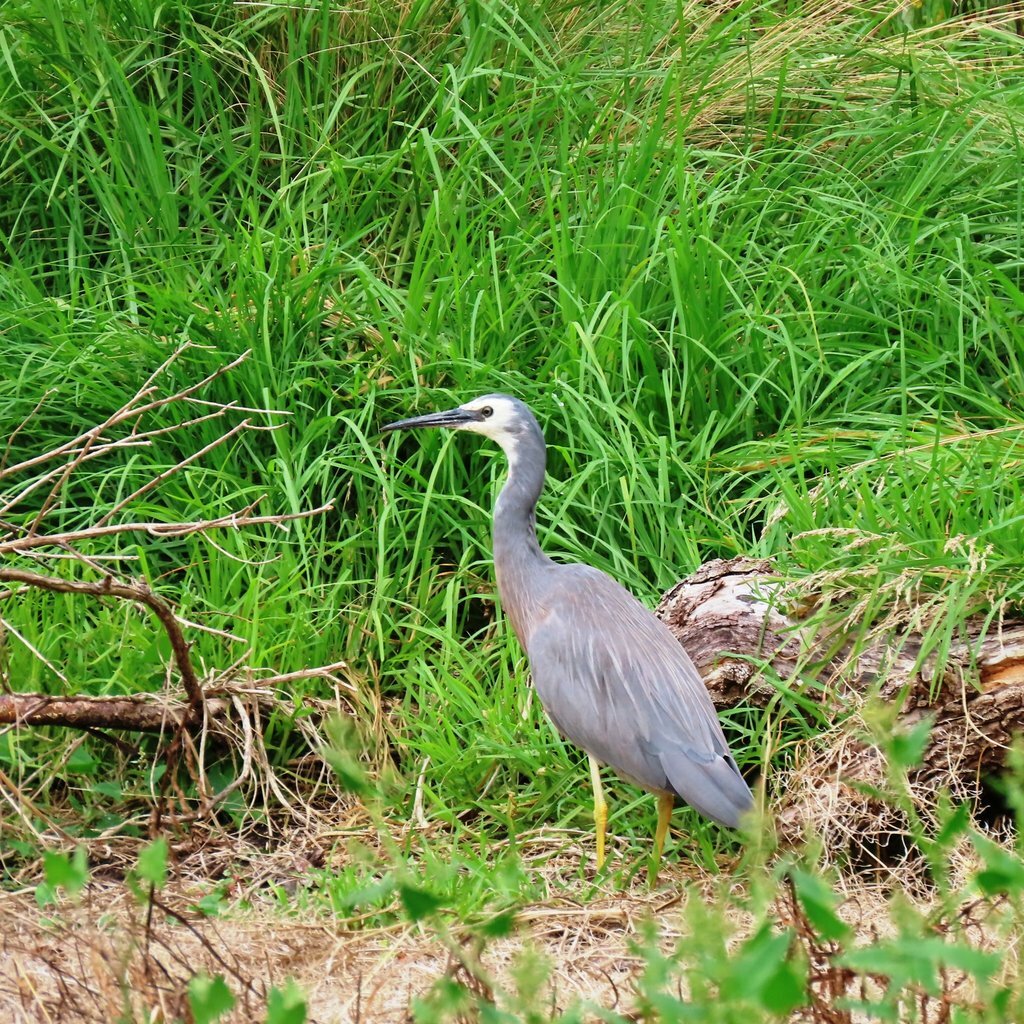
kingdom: Animalia
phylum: Chordata
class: Aves
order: Pelecaniformes
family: Ardeidae
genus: Egretta
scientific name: Egretta novaehollandiae
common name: White-faced heron
